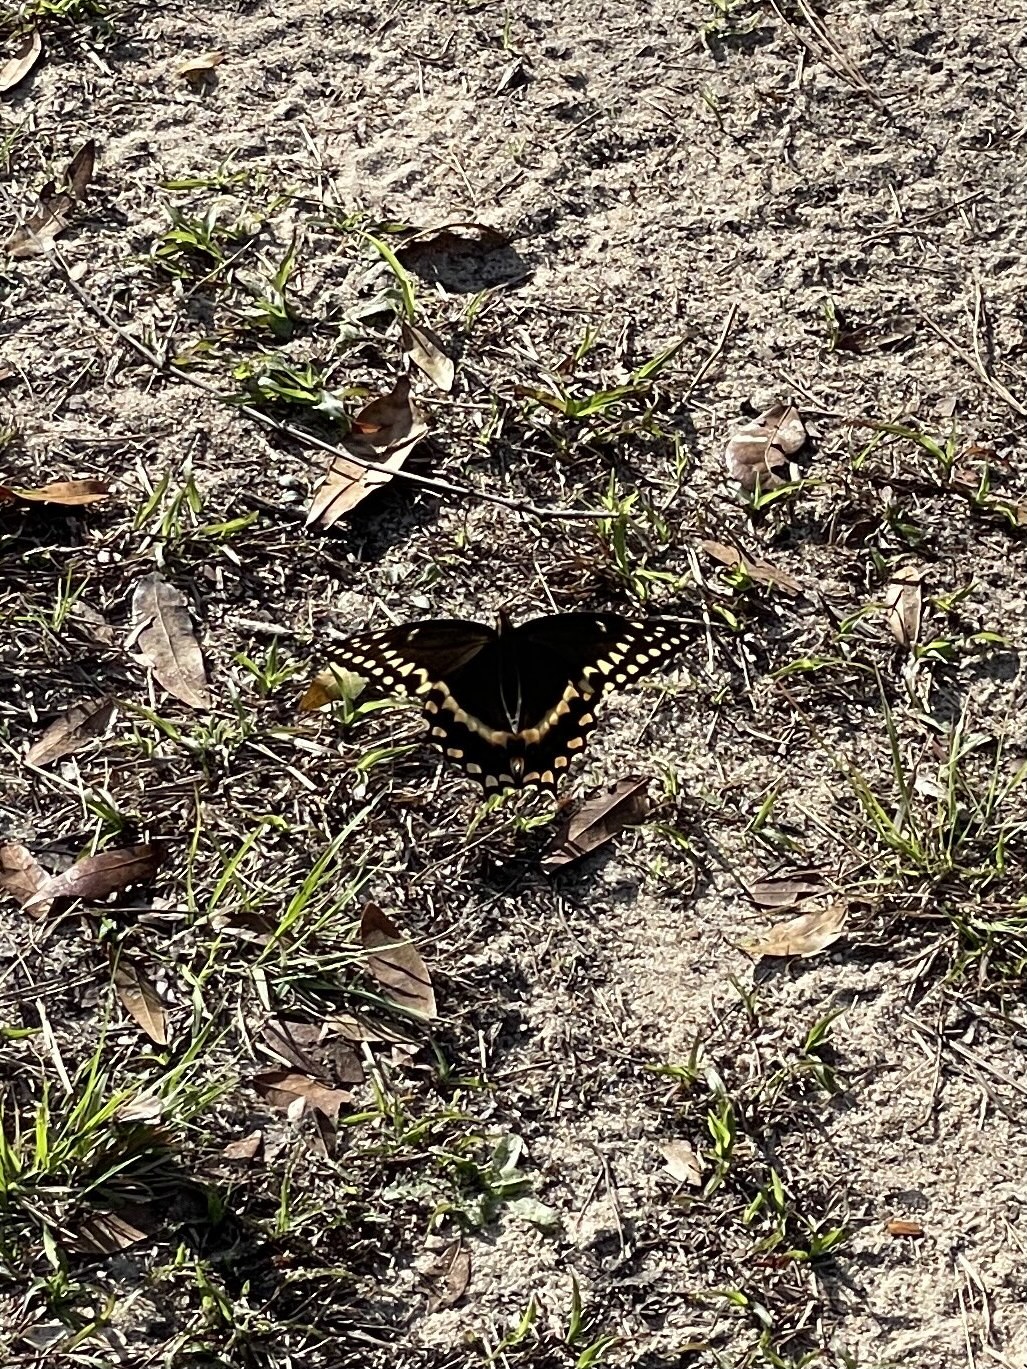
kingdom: Animalia
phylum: Arthropoda
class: Insecta
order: Lepidoptera
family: Papilionidae
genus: Papilio
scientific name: Papilio palamedes
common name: Palamedes swallowtail
